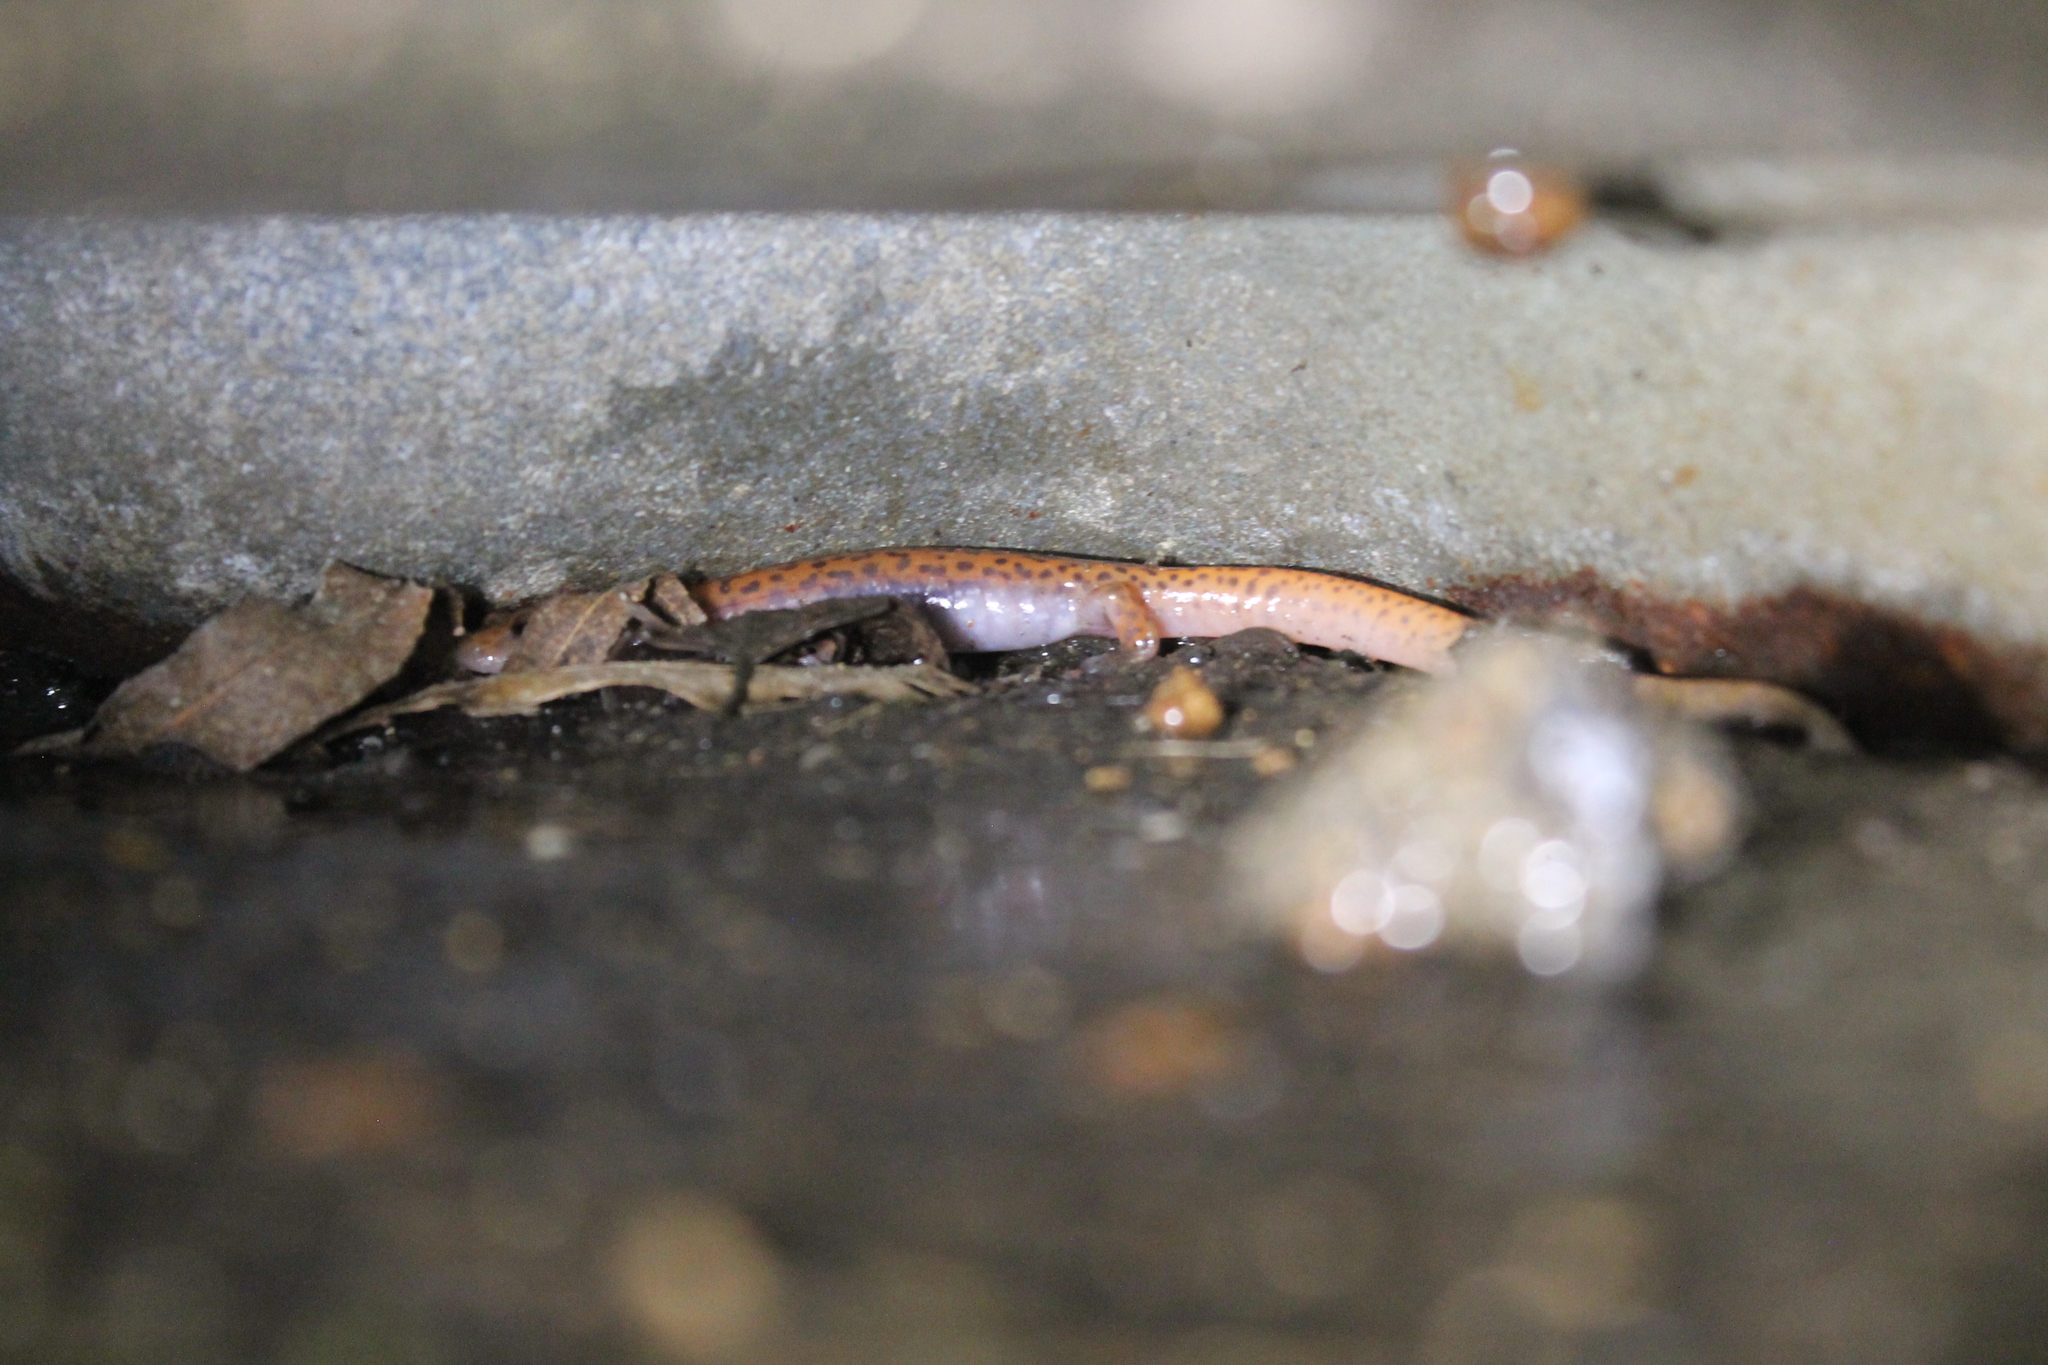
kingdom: Animalia
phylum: Chordata
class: Amphibia
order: Caudata
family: Plethodontidae
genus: Eurycea
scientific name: Eurycea lucifuga
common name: Cave salamander
